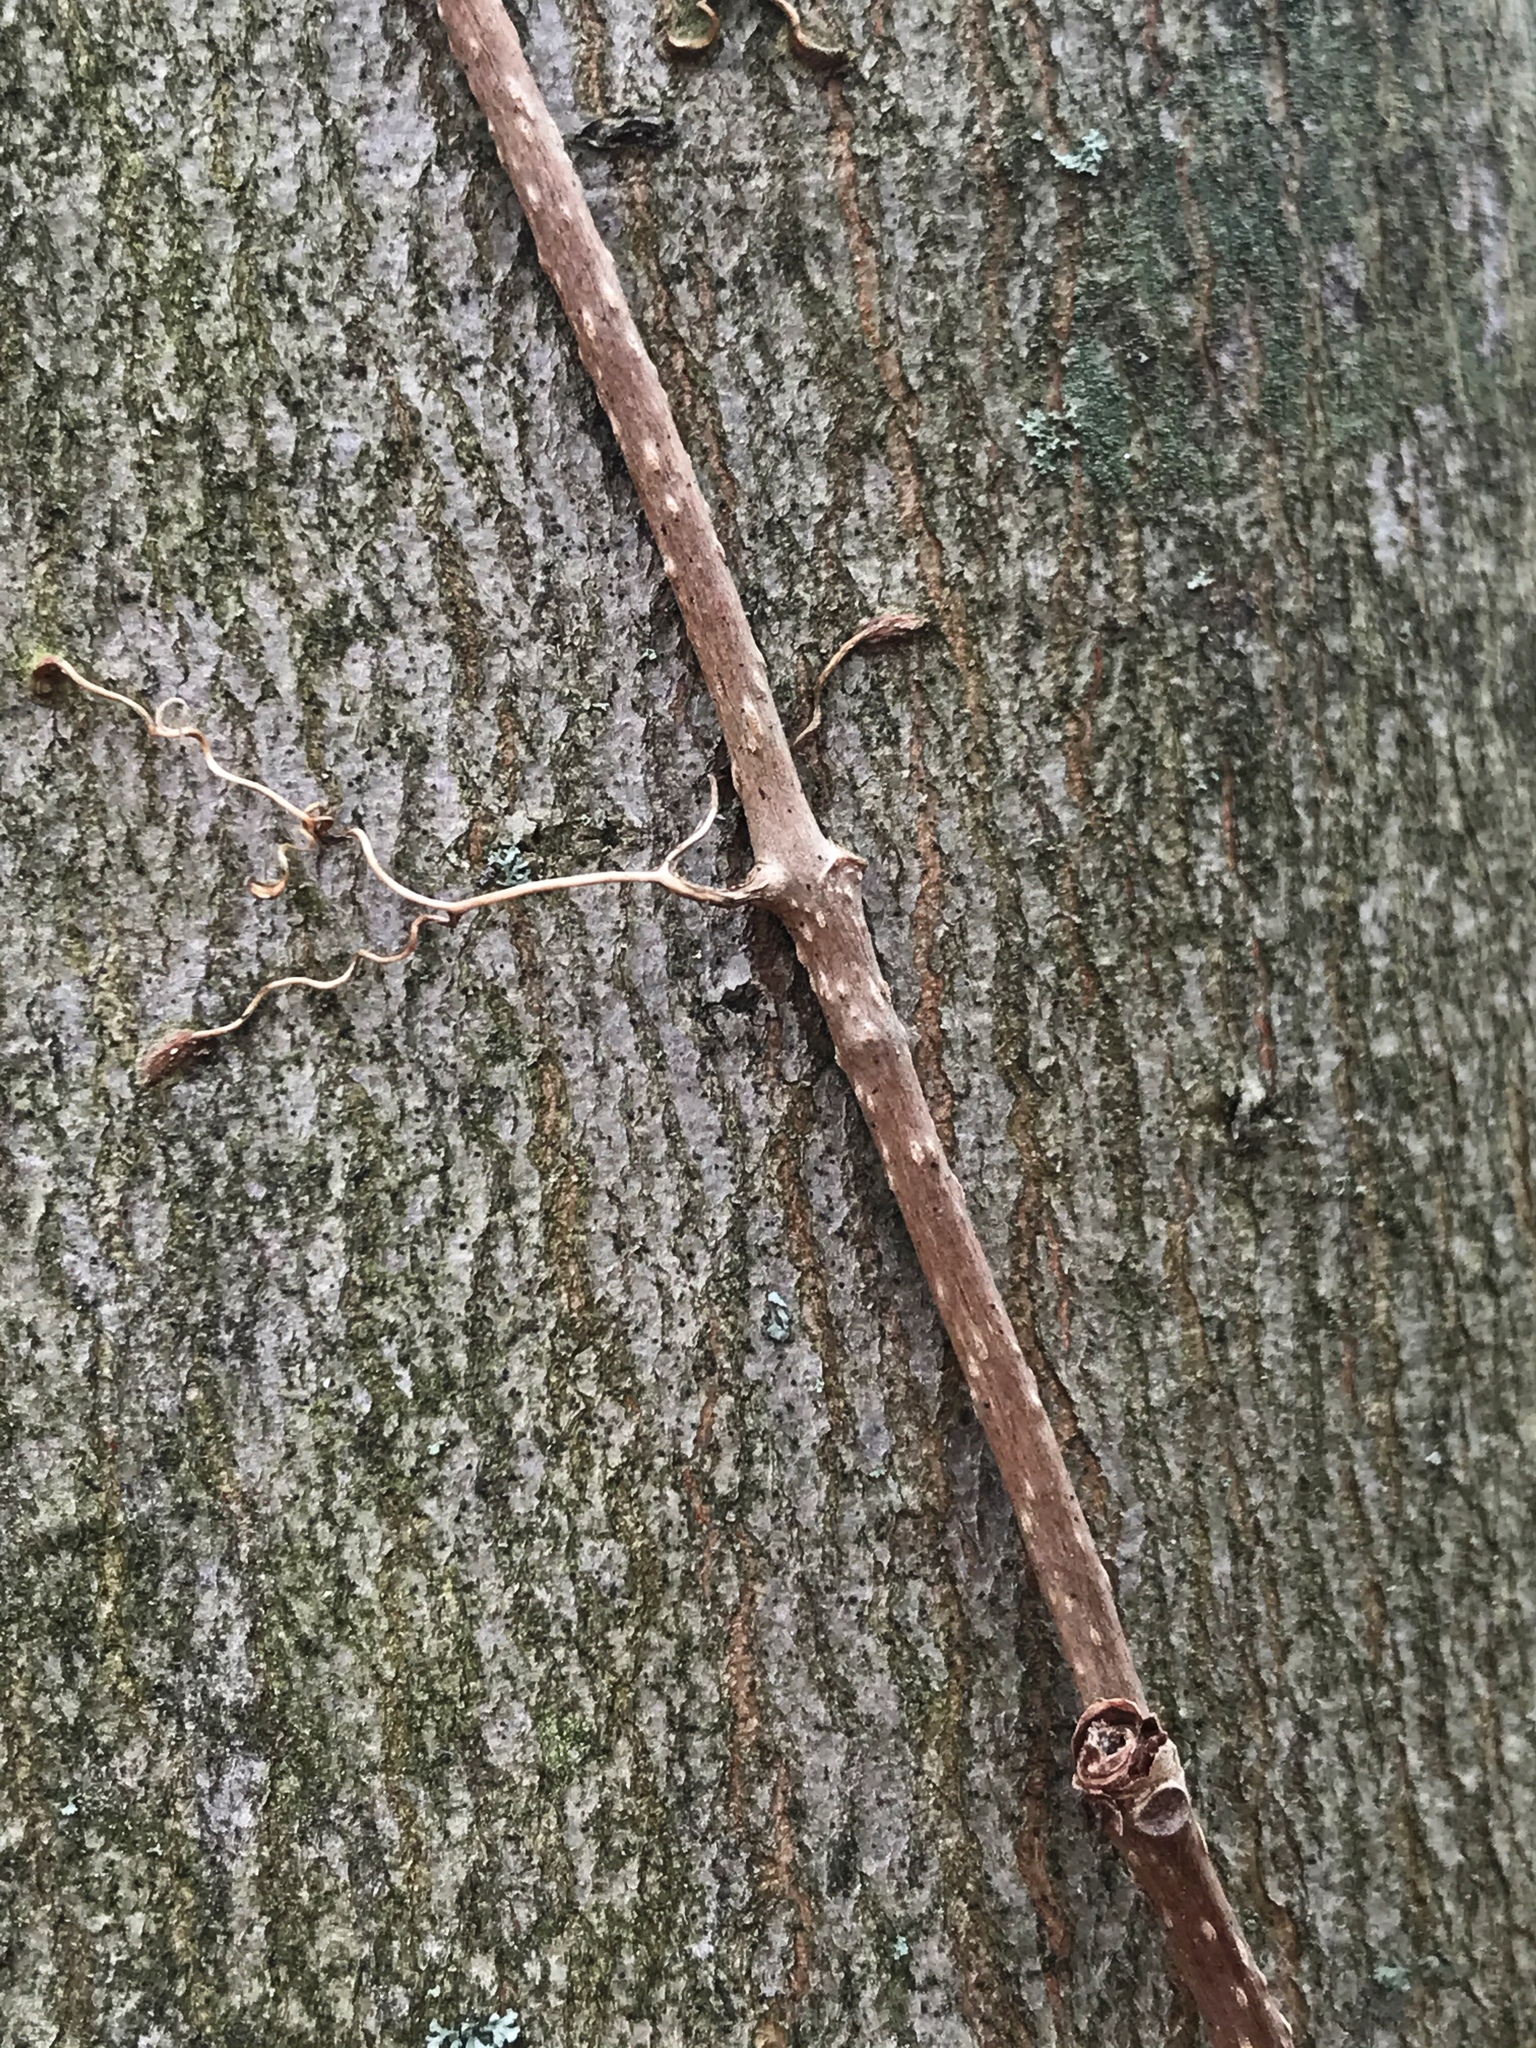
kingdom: Plantae
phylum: Tracheophyta
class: Magnoliopsida
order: Vitales
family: Vitaceae
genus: Parthenocissus
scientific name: Parthenocissus quinquefolia
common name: Virginia-creeper
